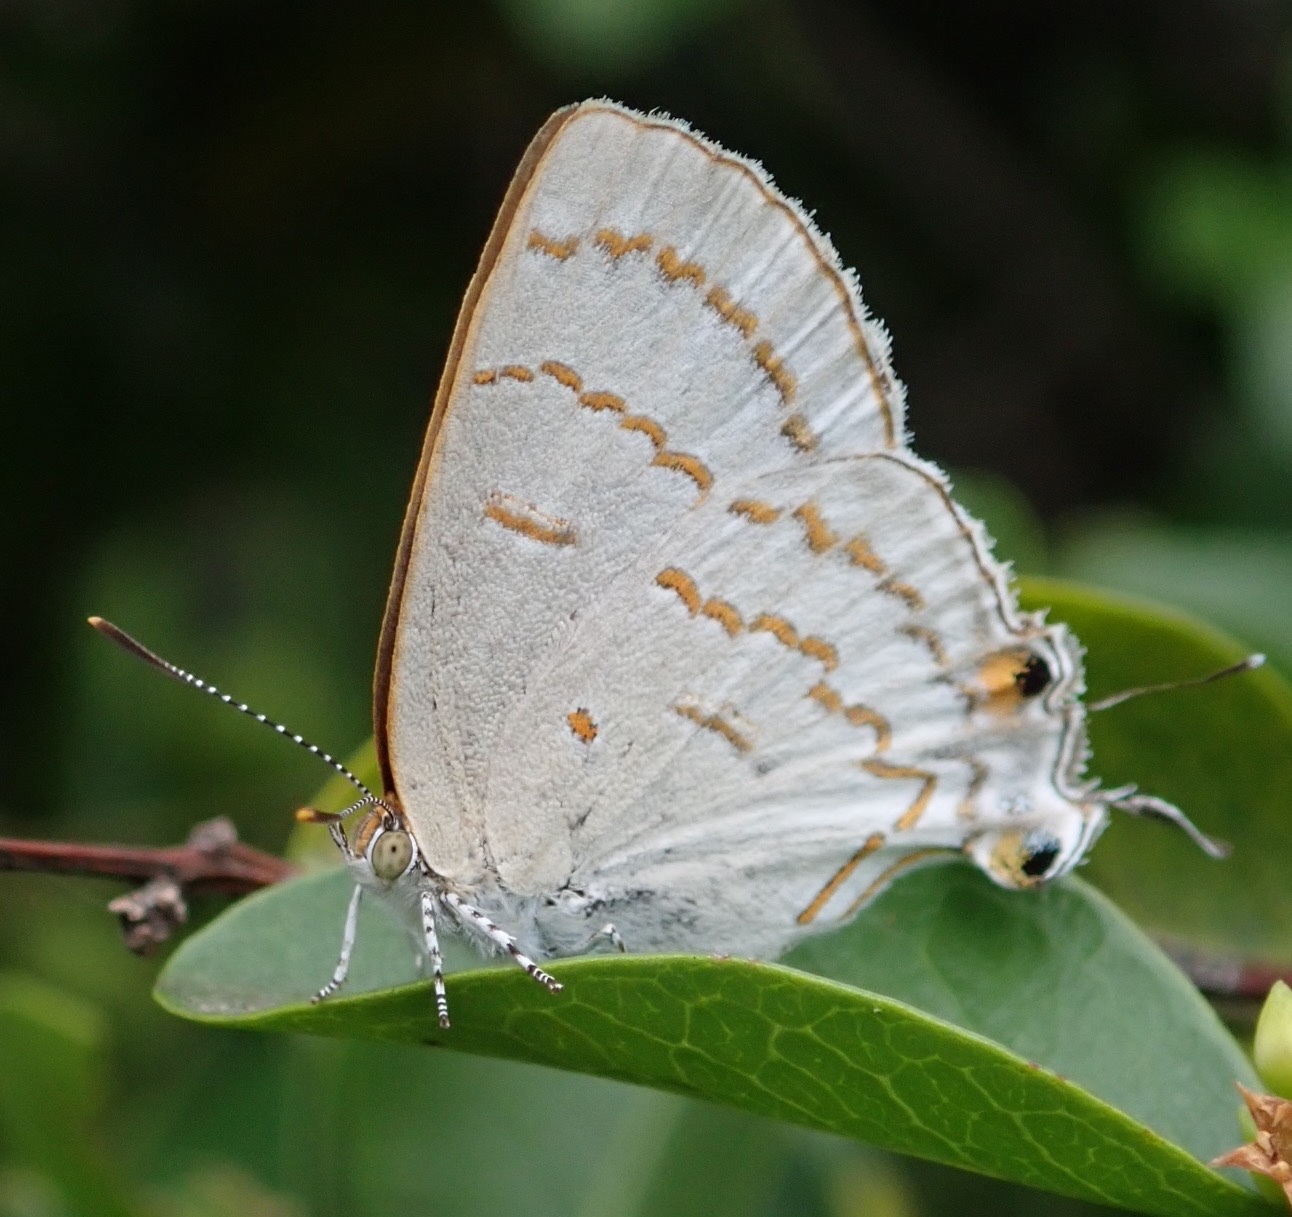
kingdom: Animalia
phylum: Arthropoda
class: Insecta
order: Lepidoptera
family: Lycaenidae
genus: Hypolycaena
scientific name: Hypolycaena philippus
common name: Common hairstreak
